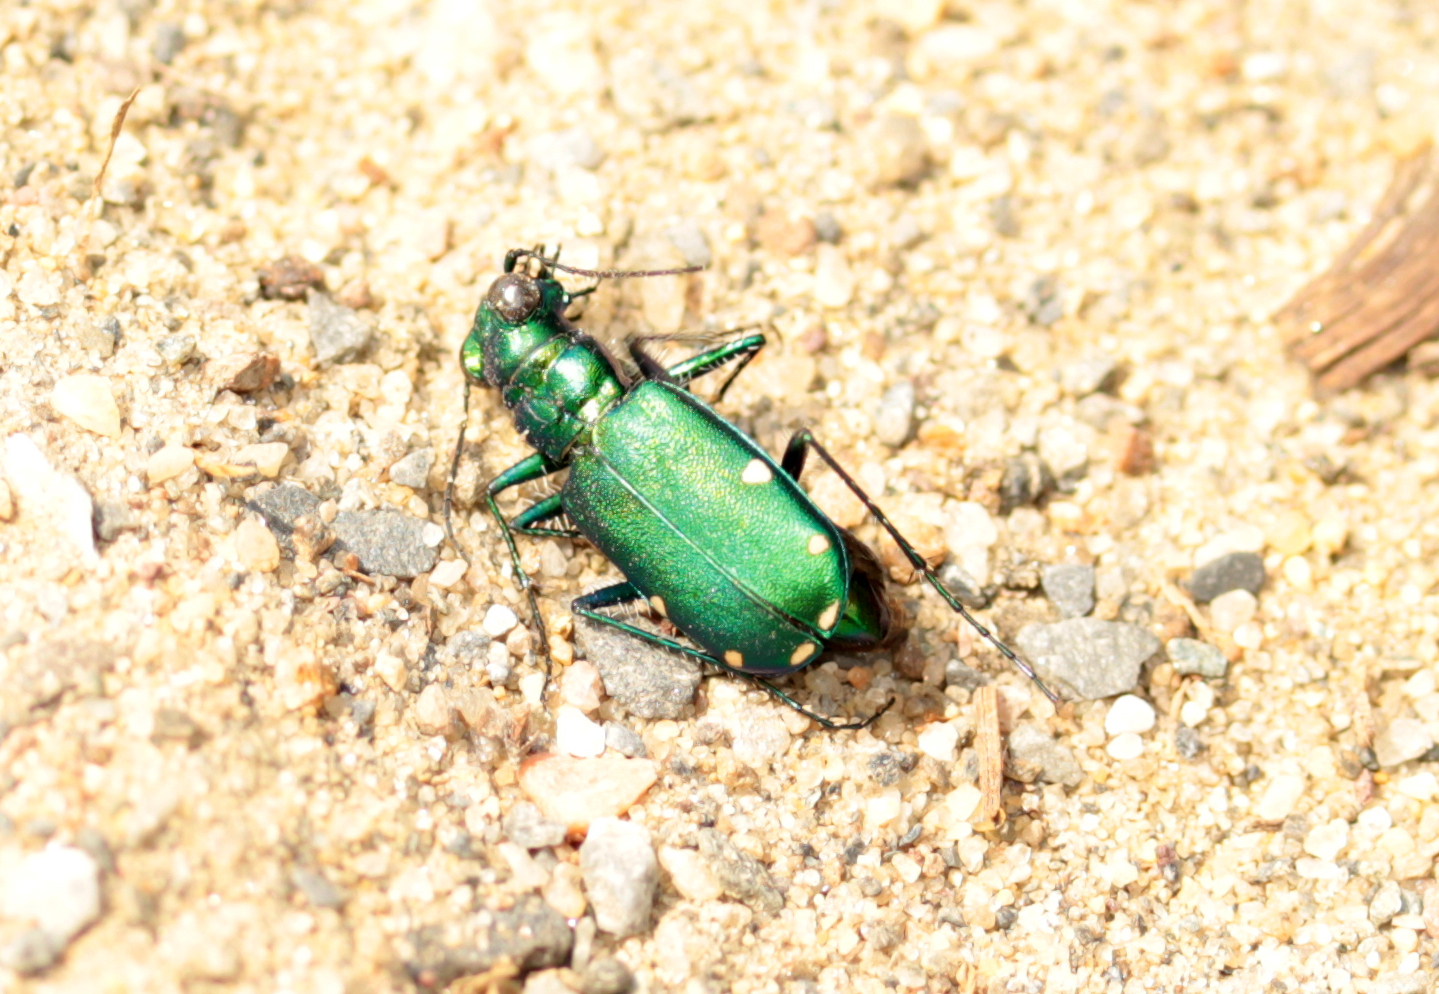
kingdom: Animalia
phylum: Arthropoda
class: Insecta
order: Coleoptera
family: Carabidae
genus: Cicindela
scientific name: Cicindela sexguttata
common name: Six-spotted tiger beetle
